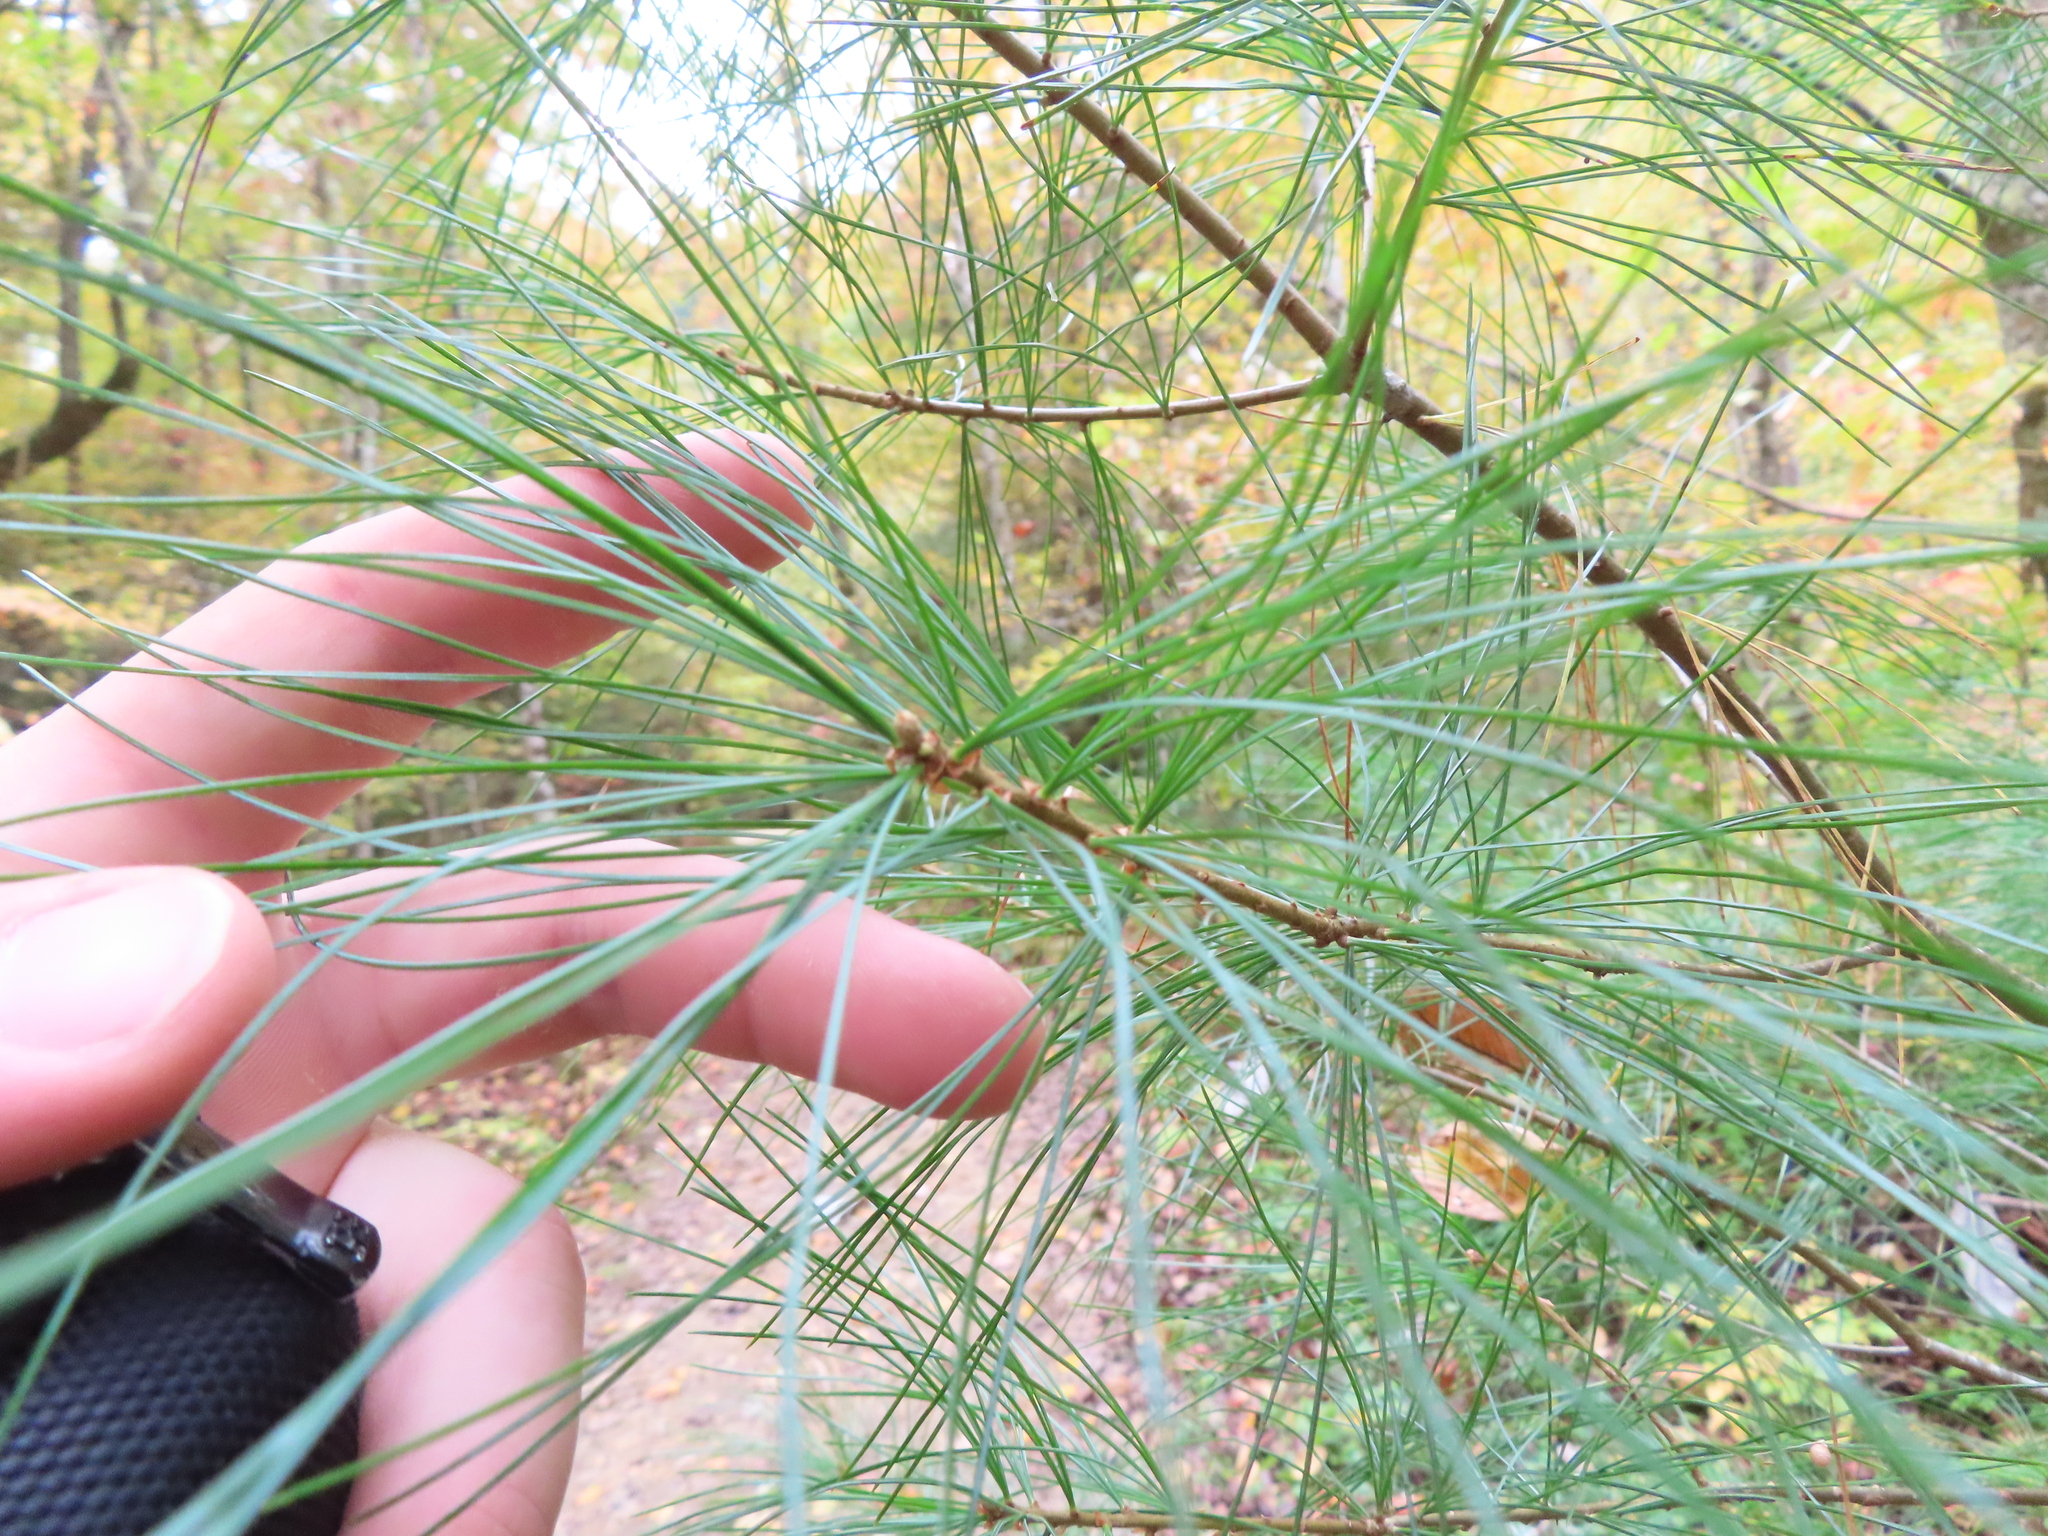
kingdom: Plantae
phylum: Tracheophyta
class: Pinopsida
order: Pinales
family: Pinaceae
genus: Pinus
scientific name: Pinus strobus
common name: Weymouth pine
